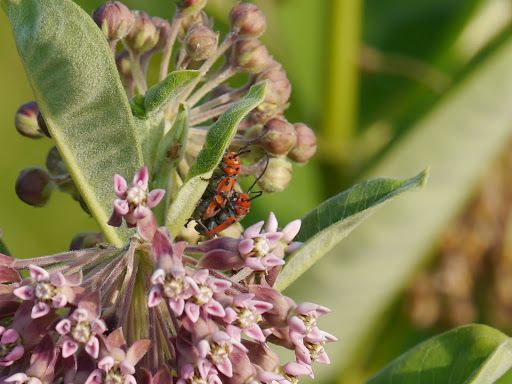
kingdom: Animalia
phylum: Arthropoda
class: Insecta
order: Coleoptera
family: Cerambycidae
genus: Tetraopes
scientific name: Tetraopes tetrophthalmus
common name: Red milkweed beetle
